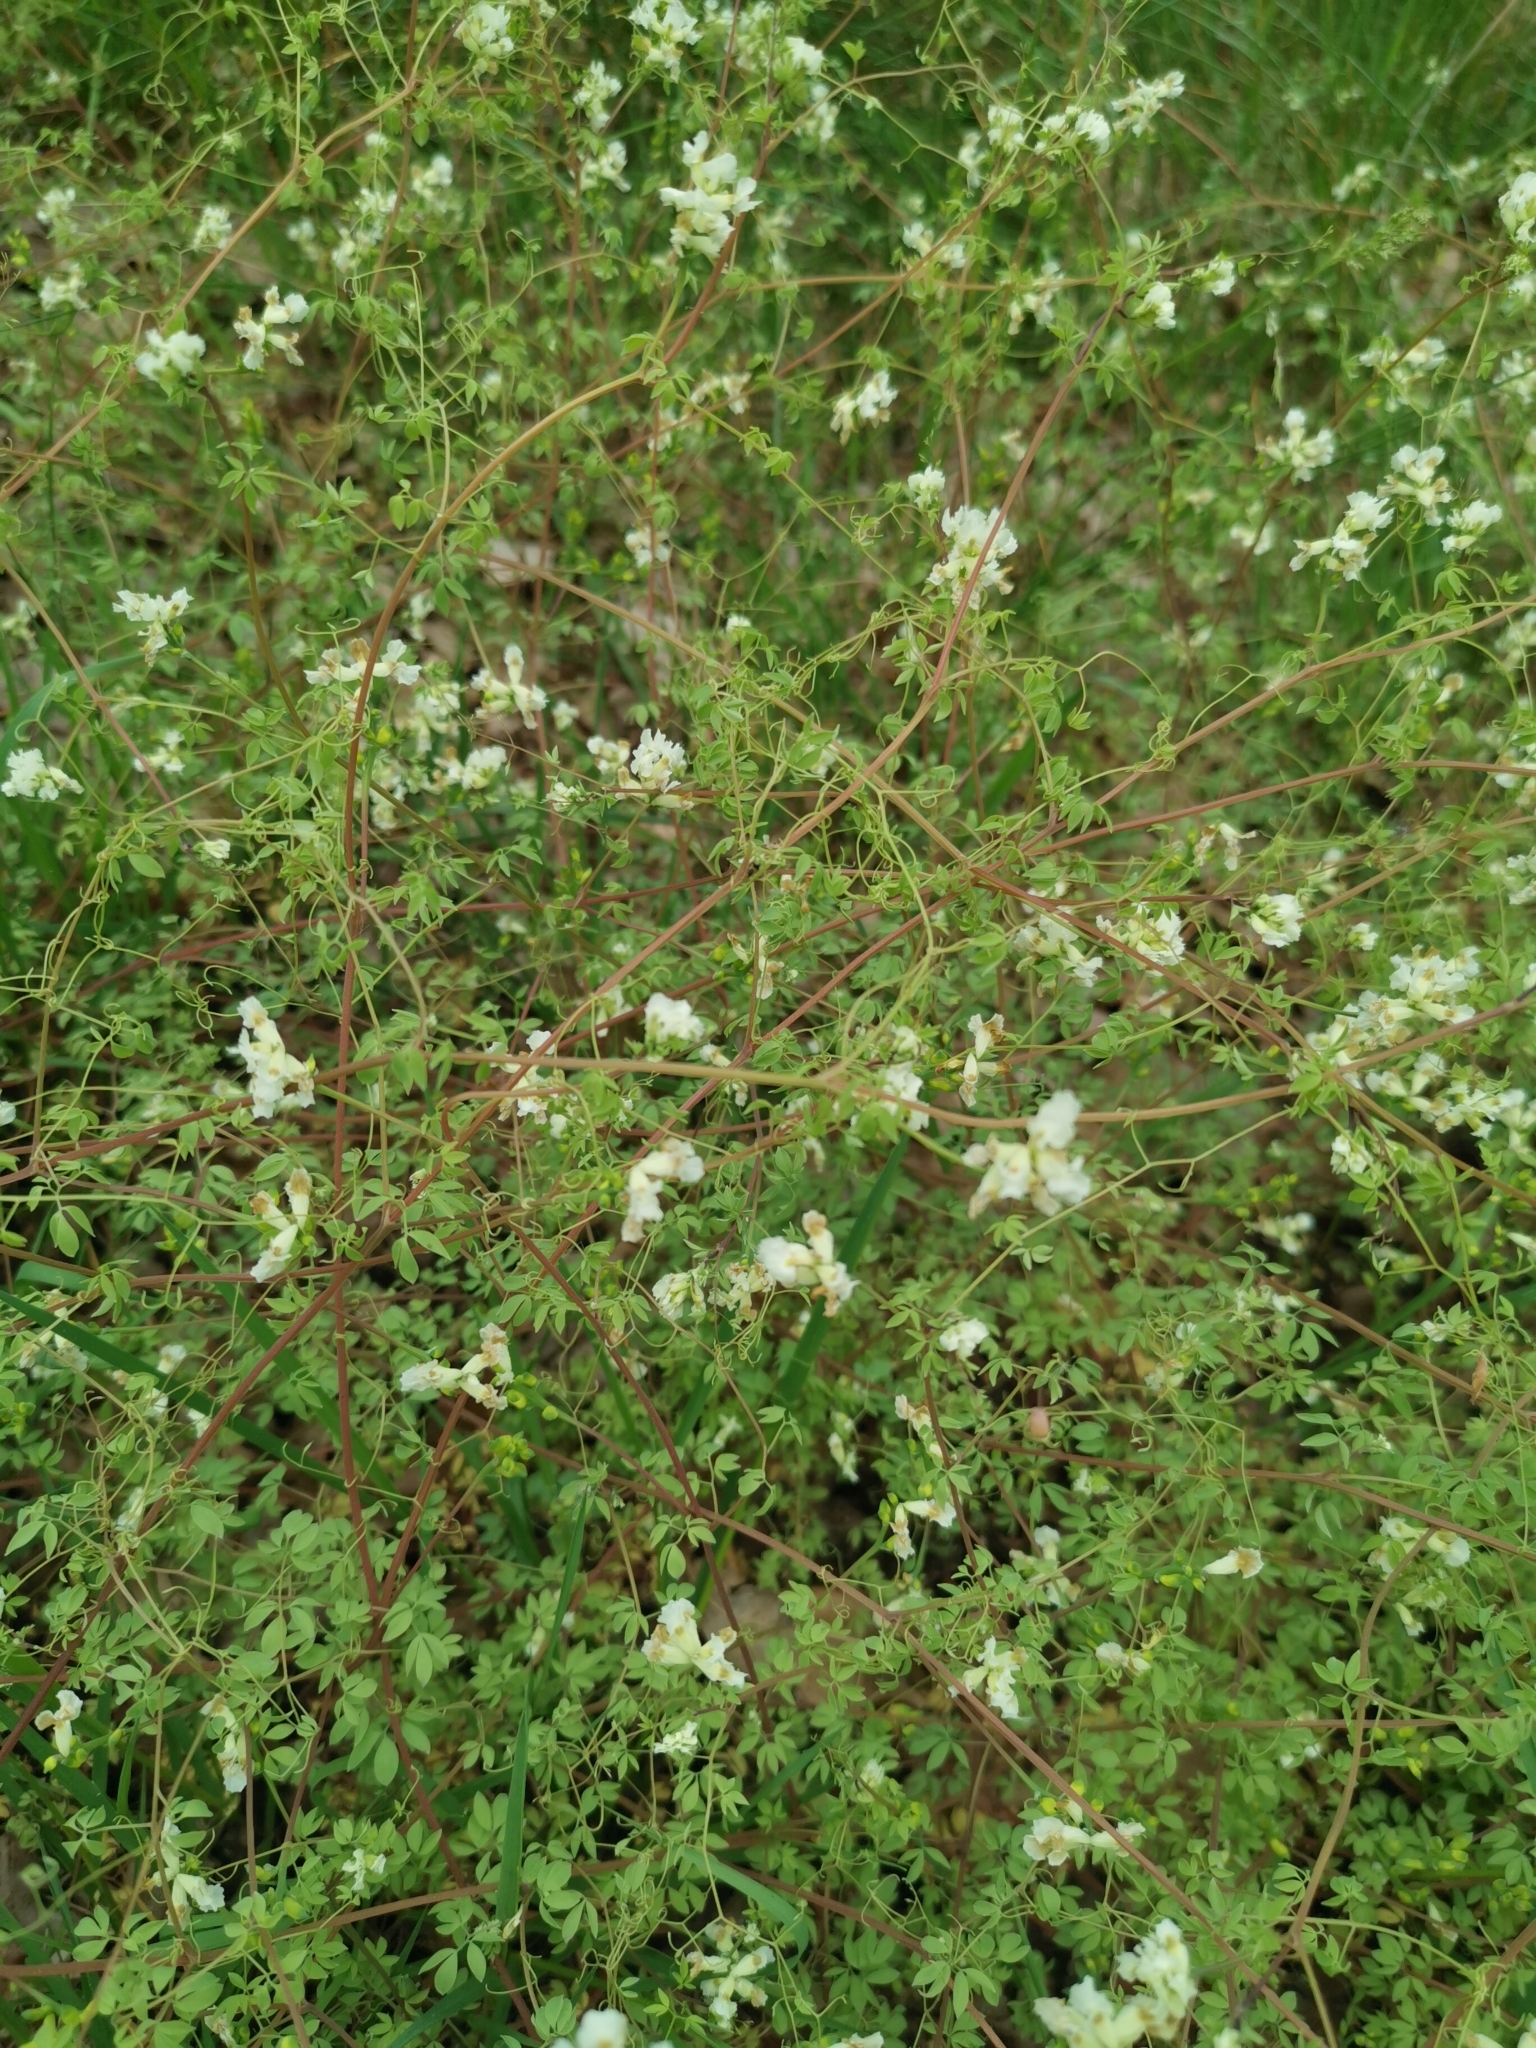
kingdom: Plantae
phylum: Tracheophyta
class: Magnoliopsida
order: Ranunculales
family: Papaveraceae
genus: Ceratocapnos
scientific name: Ceratocapnos claviculata
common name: Climbing corydalis
